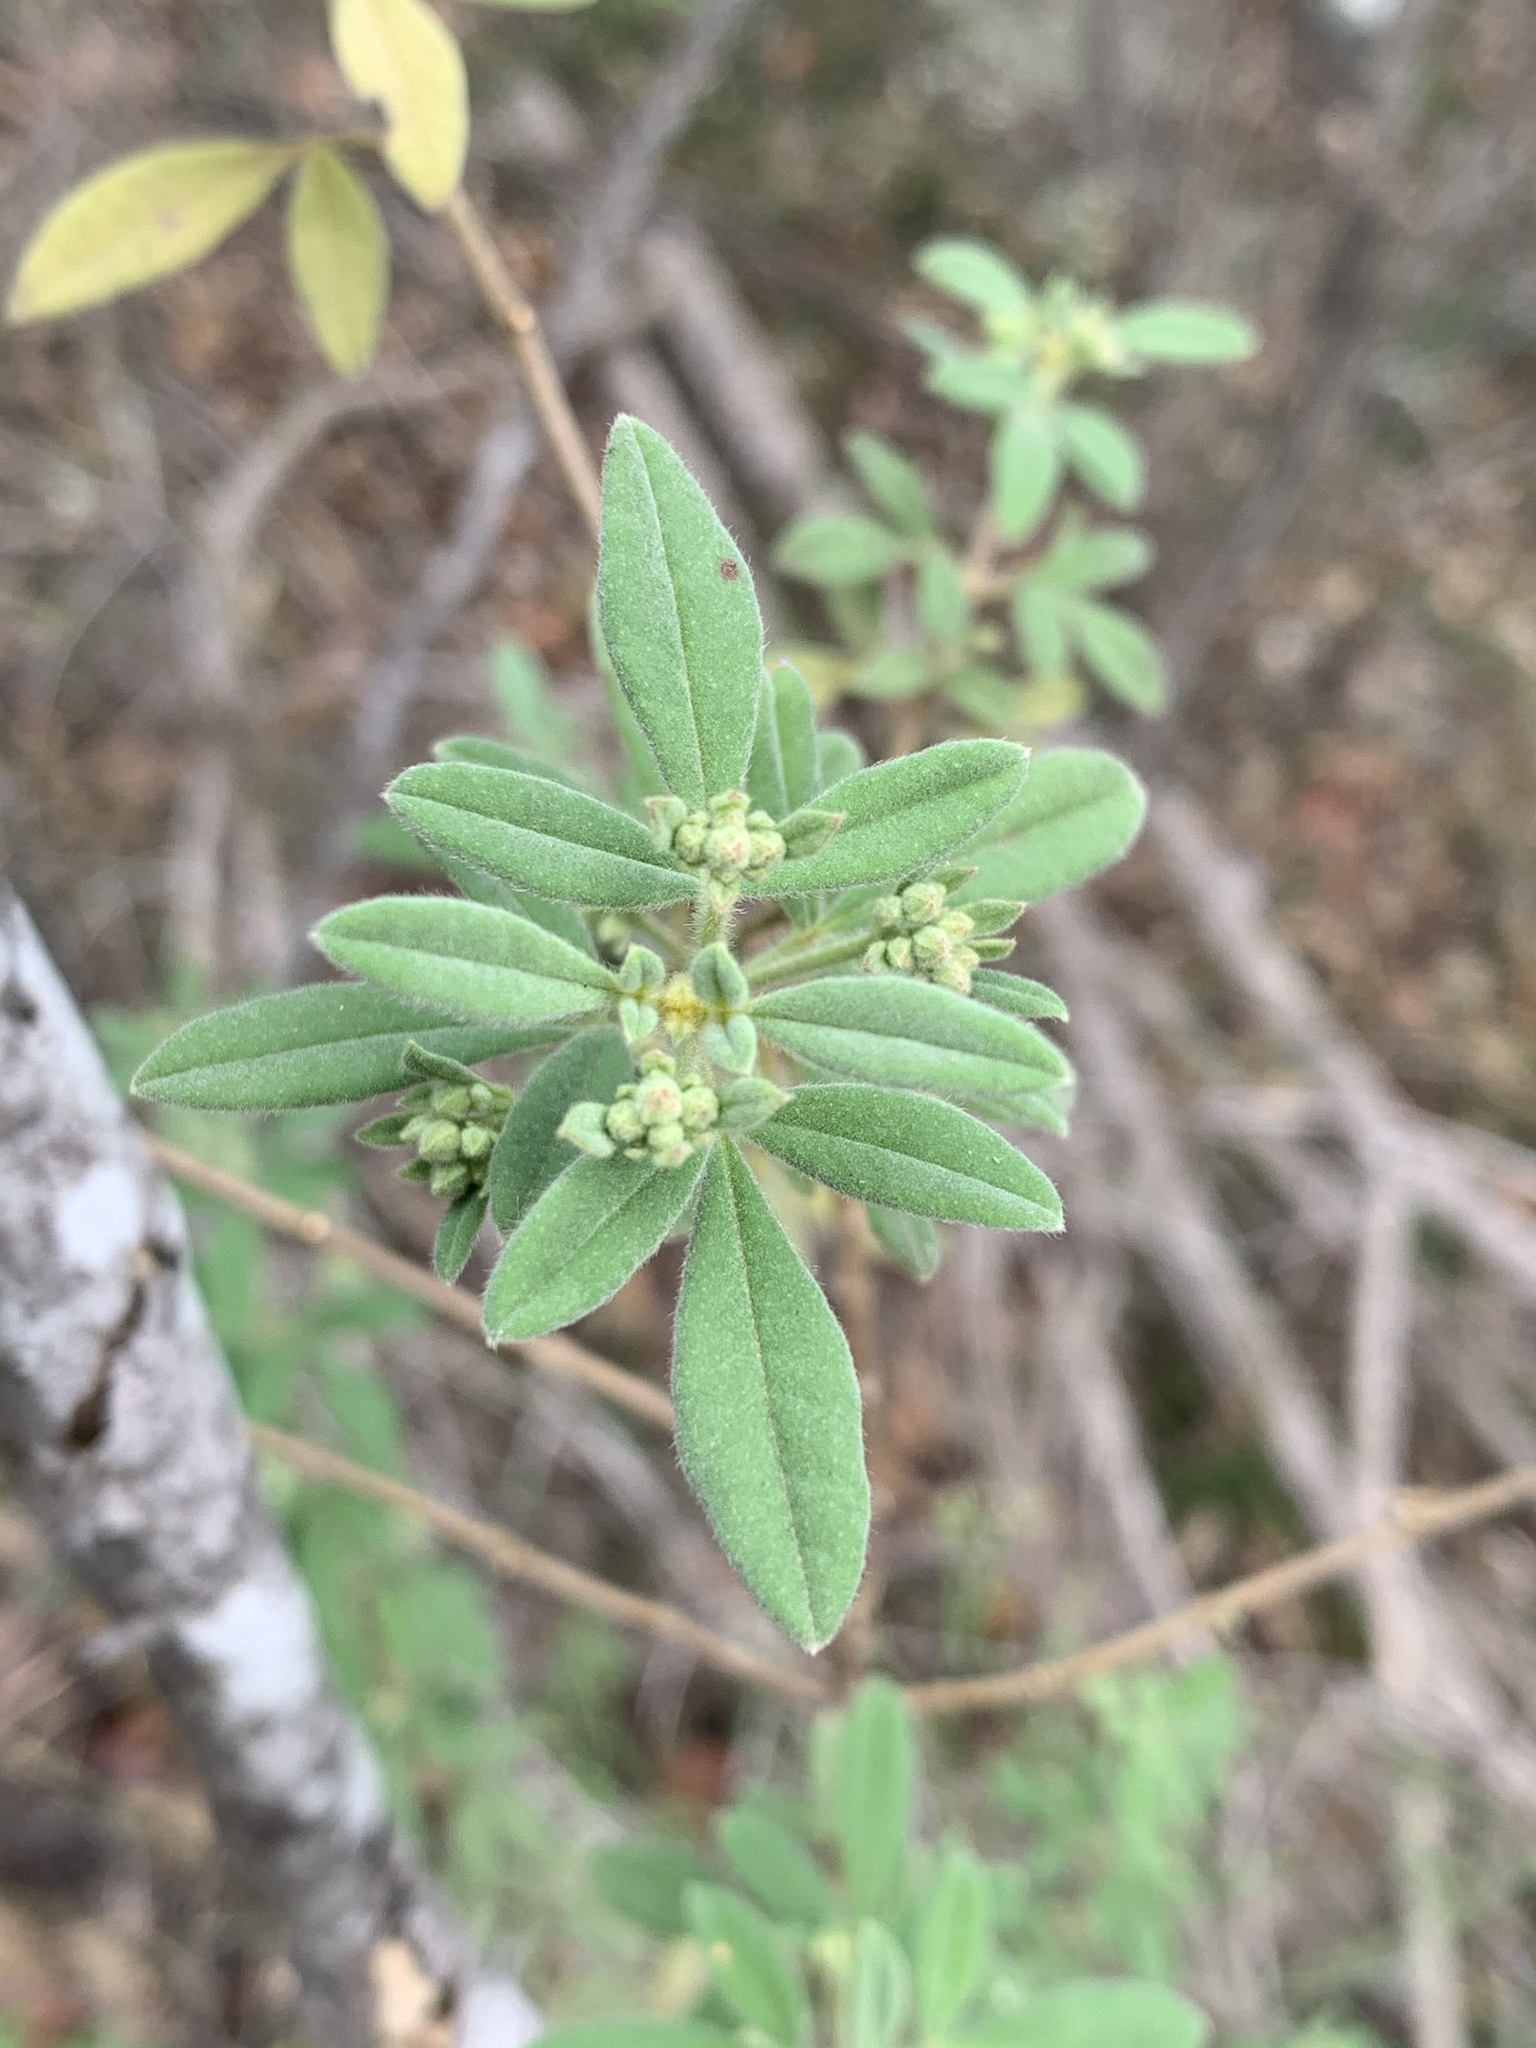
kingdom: Plantae
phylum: Tracheophyta
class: Magnoliopsida
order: Sapindales
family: Rutaceae
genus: Zieria
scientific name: Zieria cytisoides
